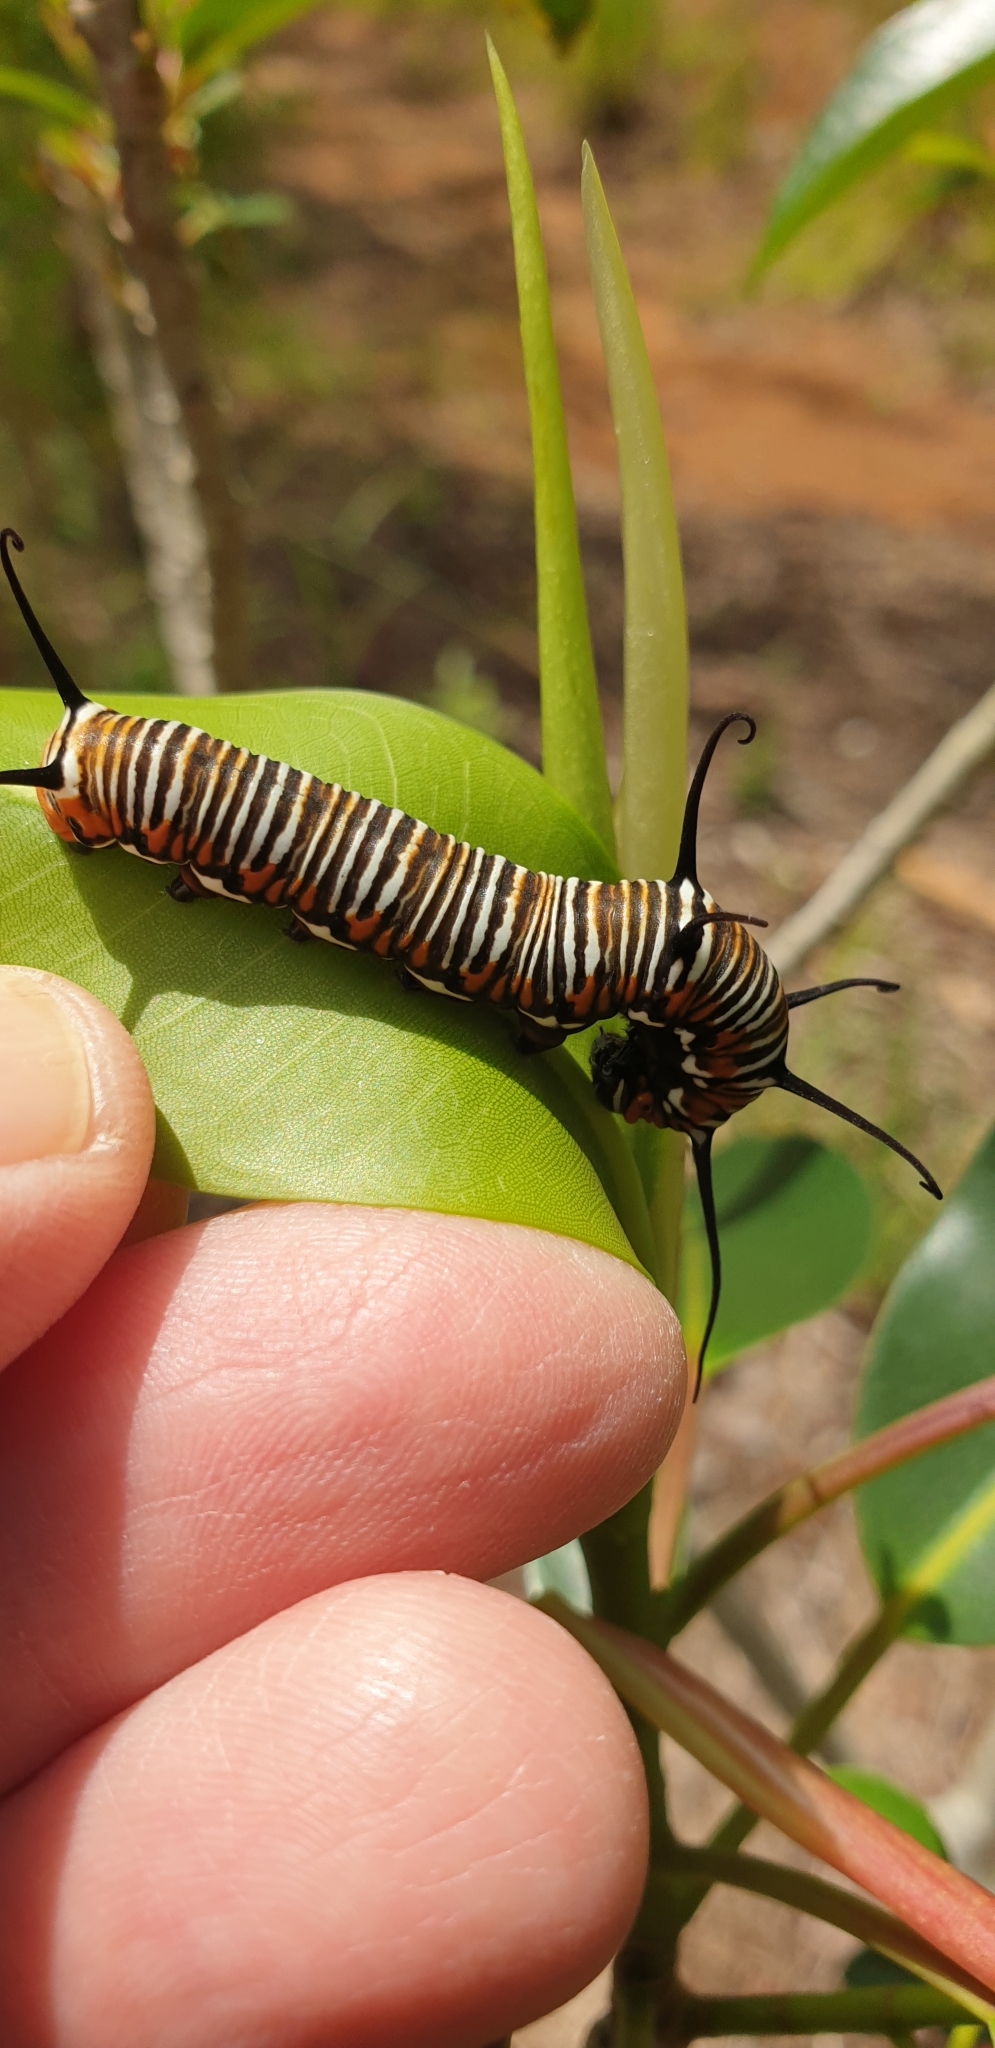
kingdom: Animalia
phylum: Arthropoda
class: Insecta
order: Lepidoptera
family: Nymphalidae
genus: Euploea
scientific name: Euploea core
